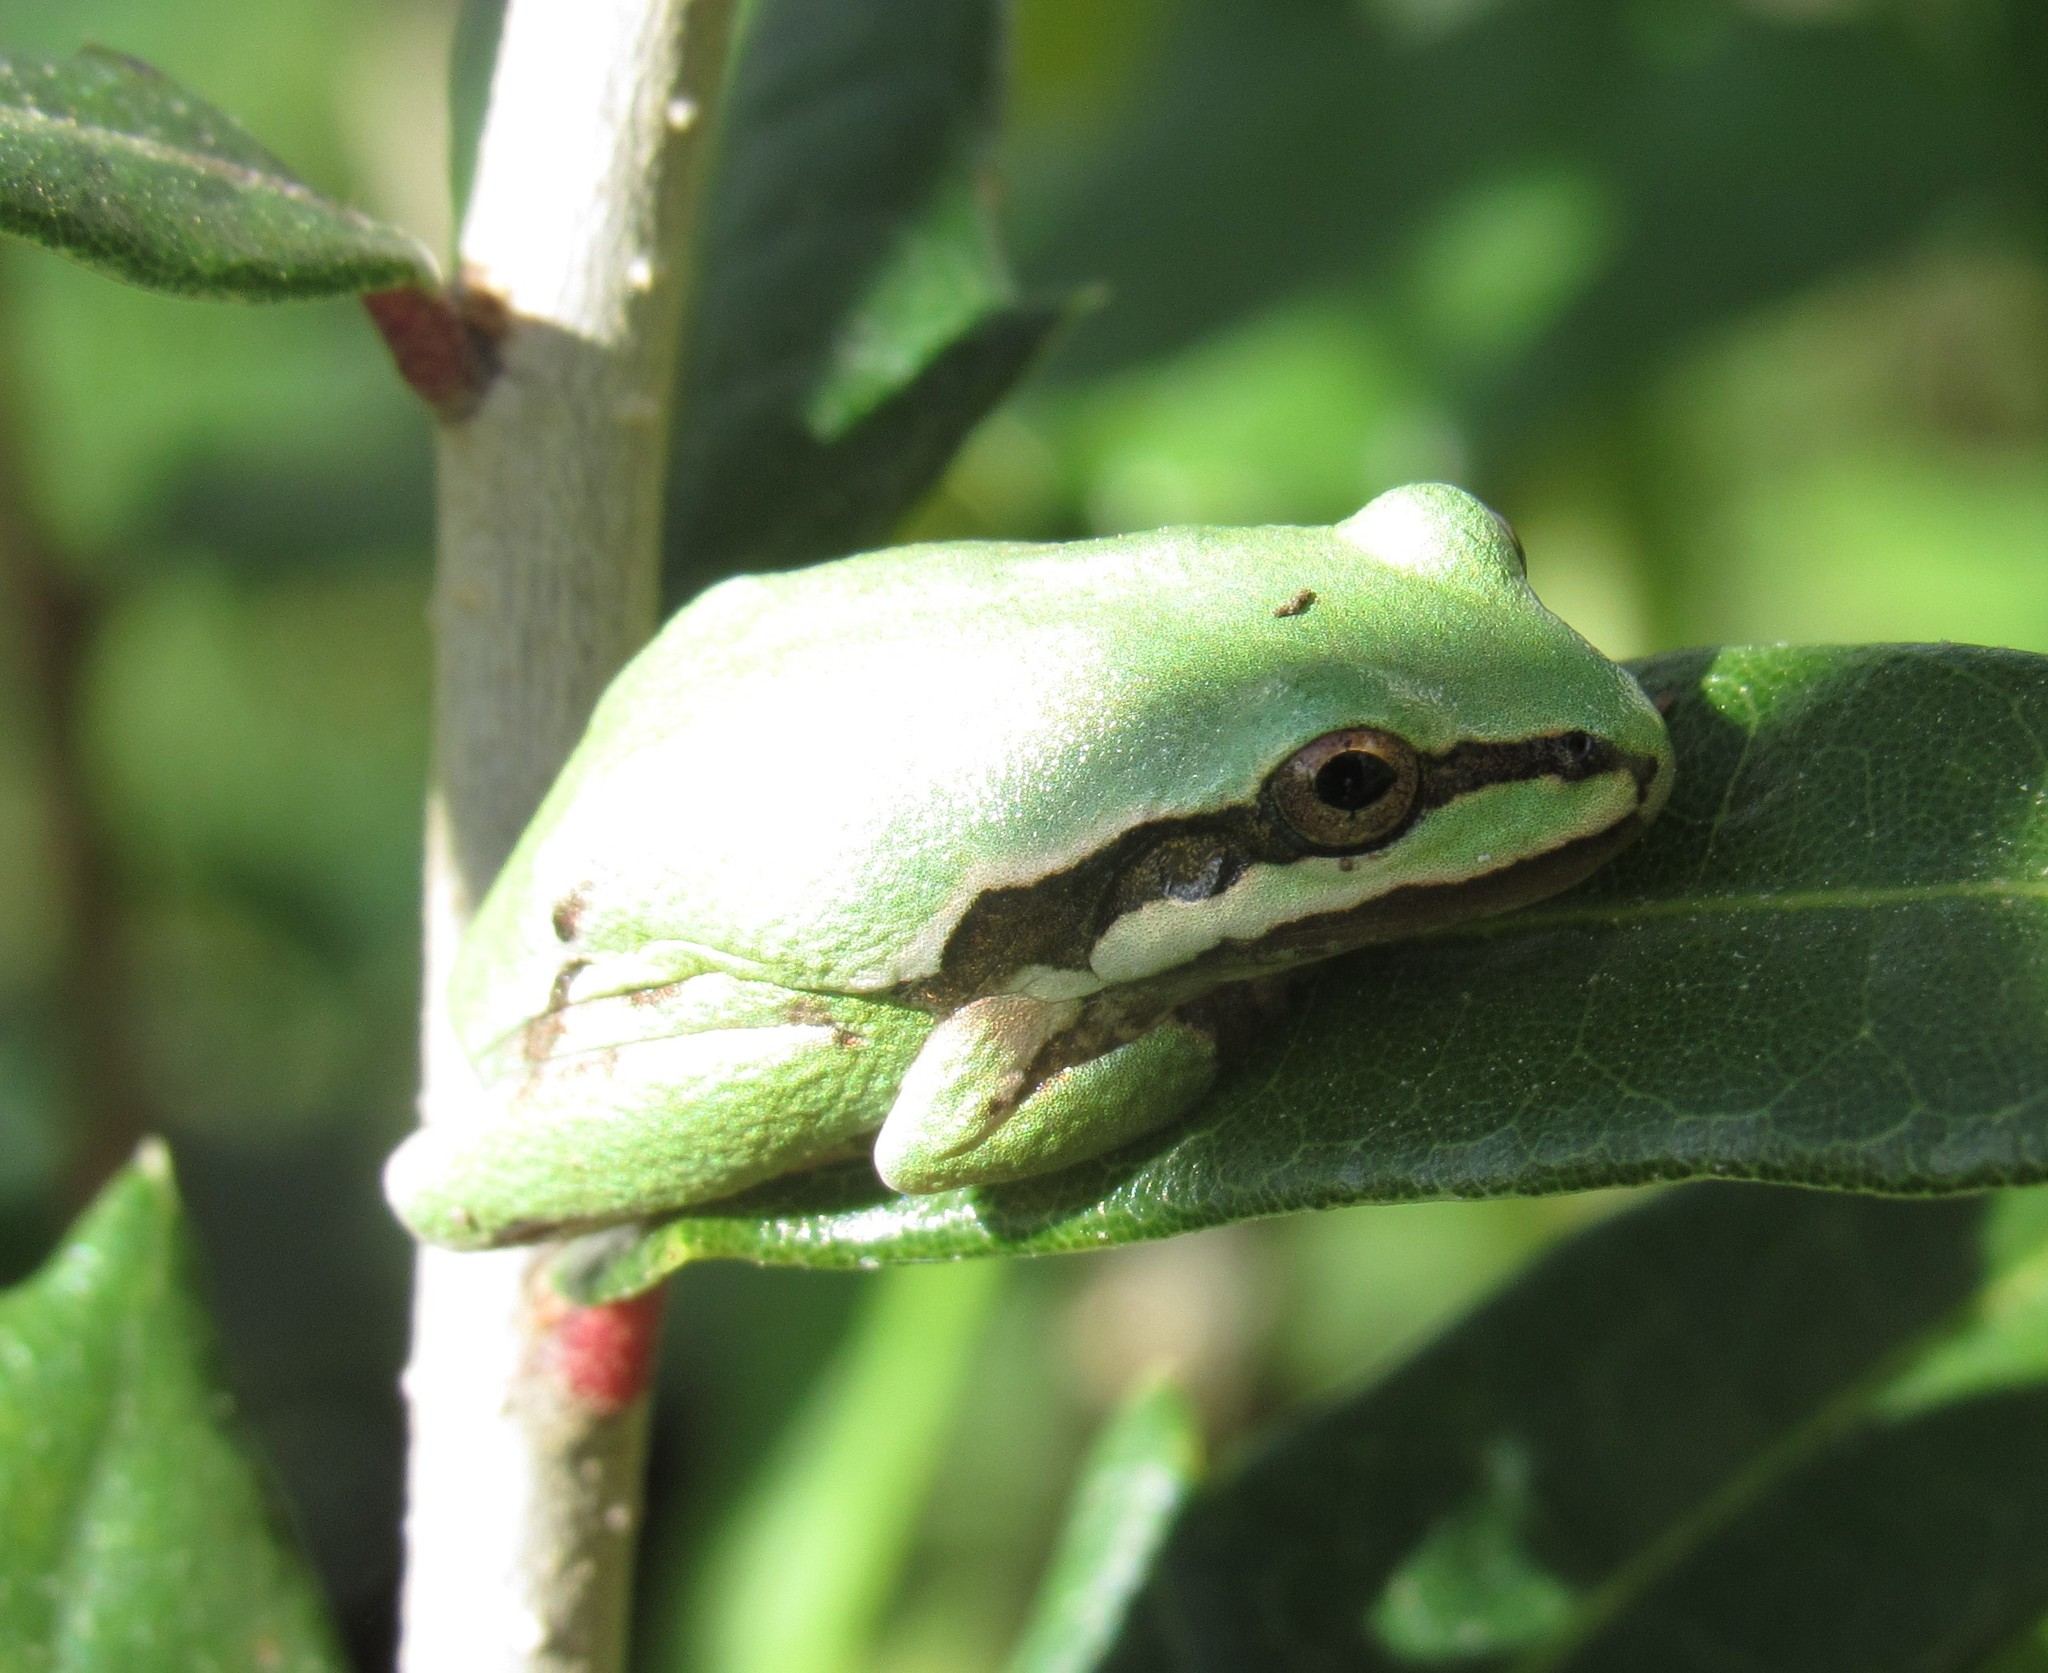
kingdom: Animalia
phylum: Chordata
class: Amphibia
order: Anura
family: Hylidae
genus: Dryophytes
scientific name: Dryophytes eximius
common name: Mountain treefrog
